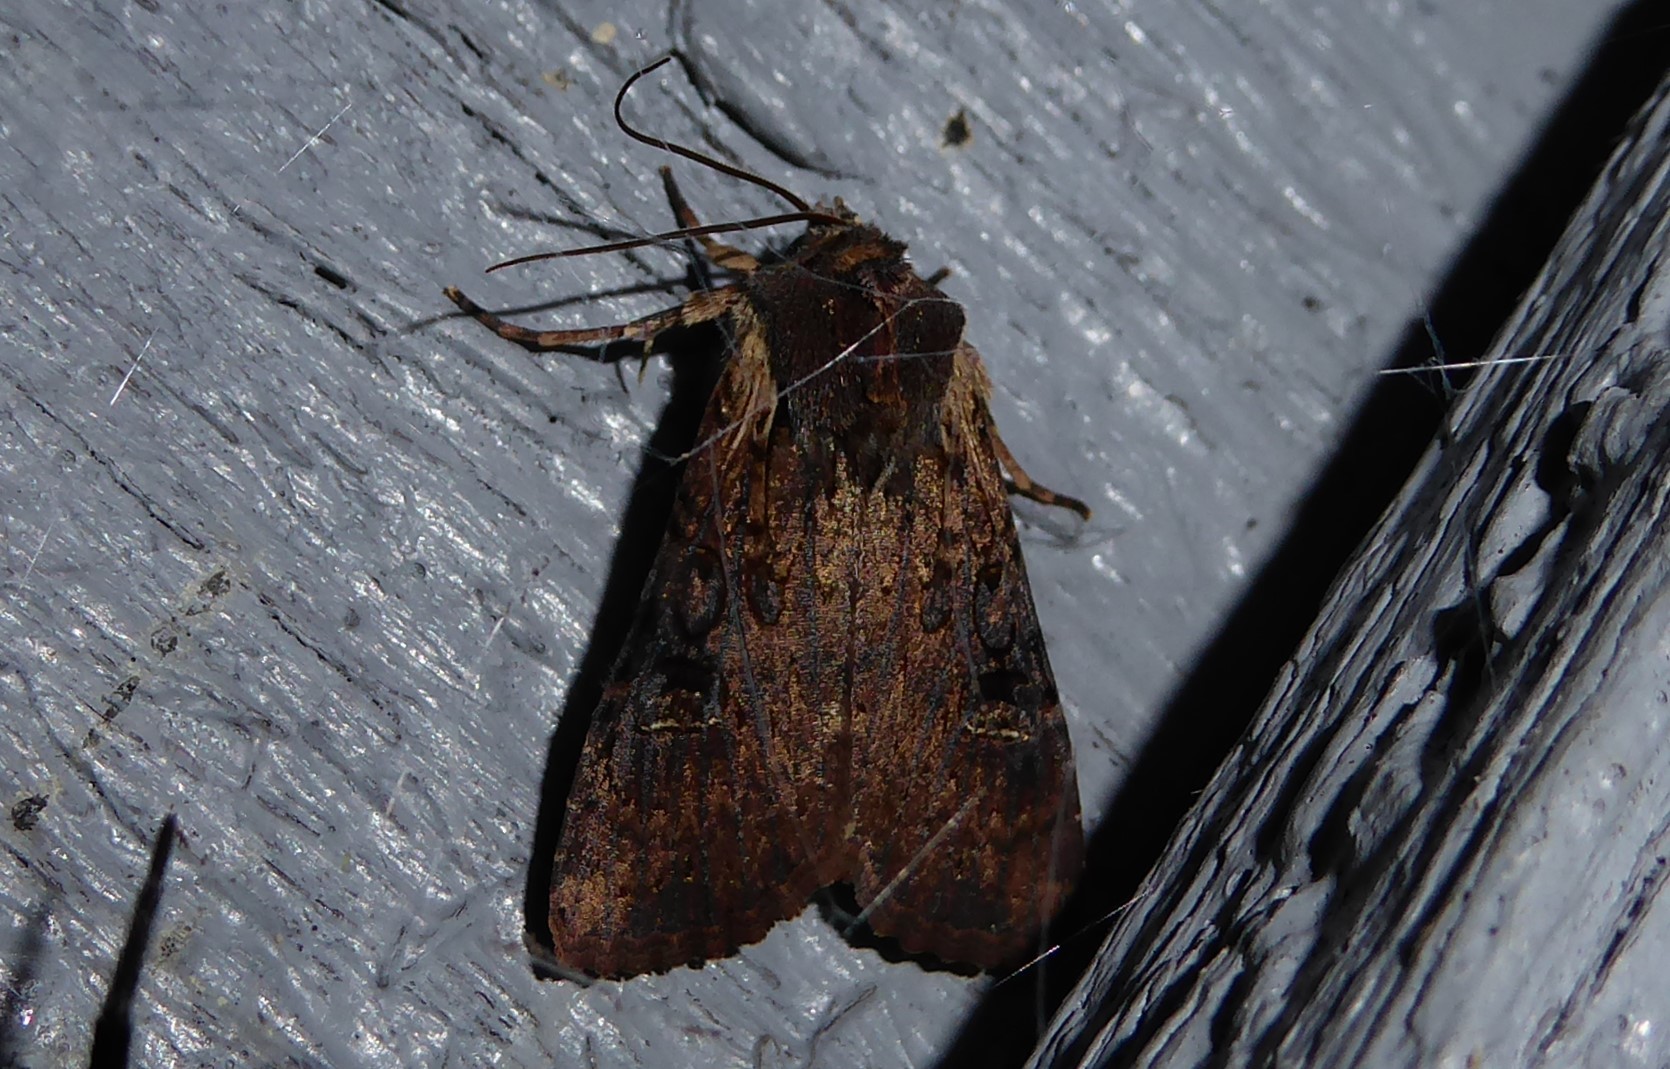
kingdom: Animalia
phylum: Arthropoda
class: Insecta
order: Lepidoptera
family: Noctuidae
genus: Ichneutica
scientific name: Ichneutica omoplaca
